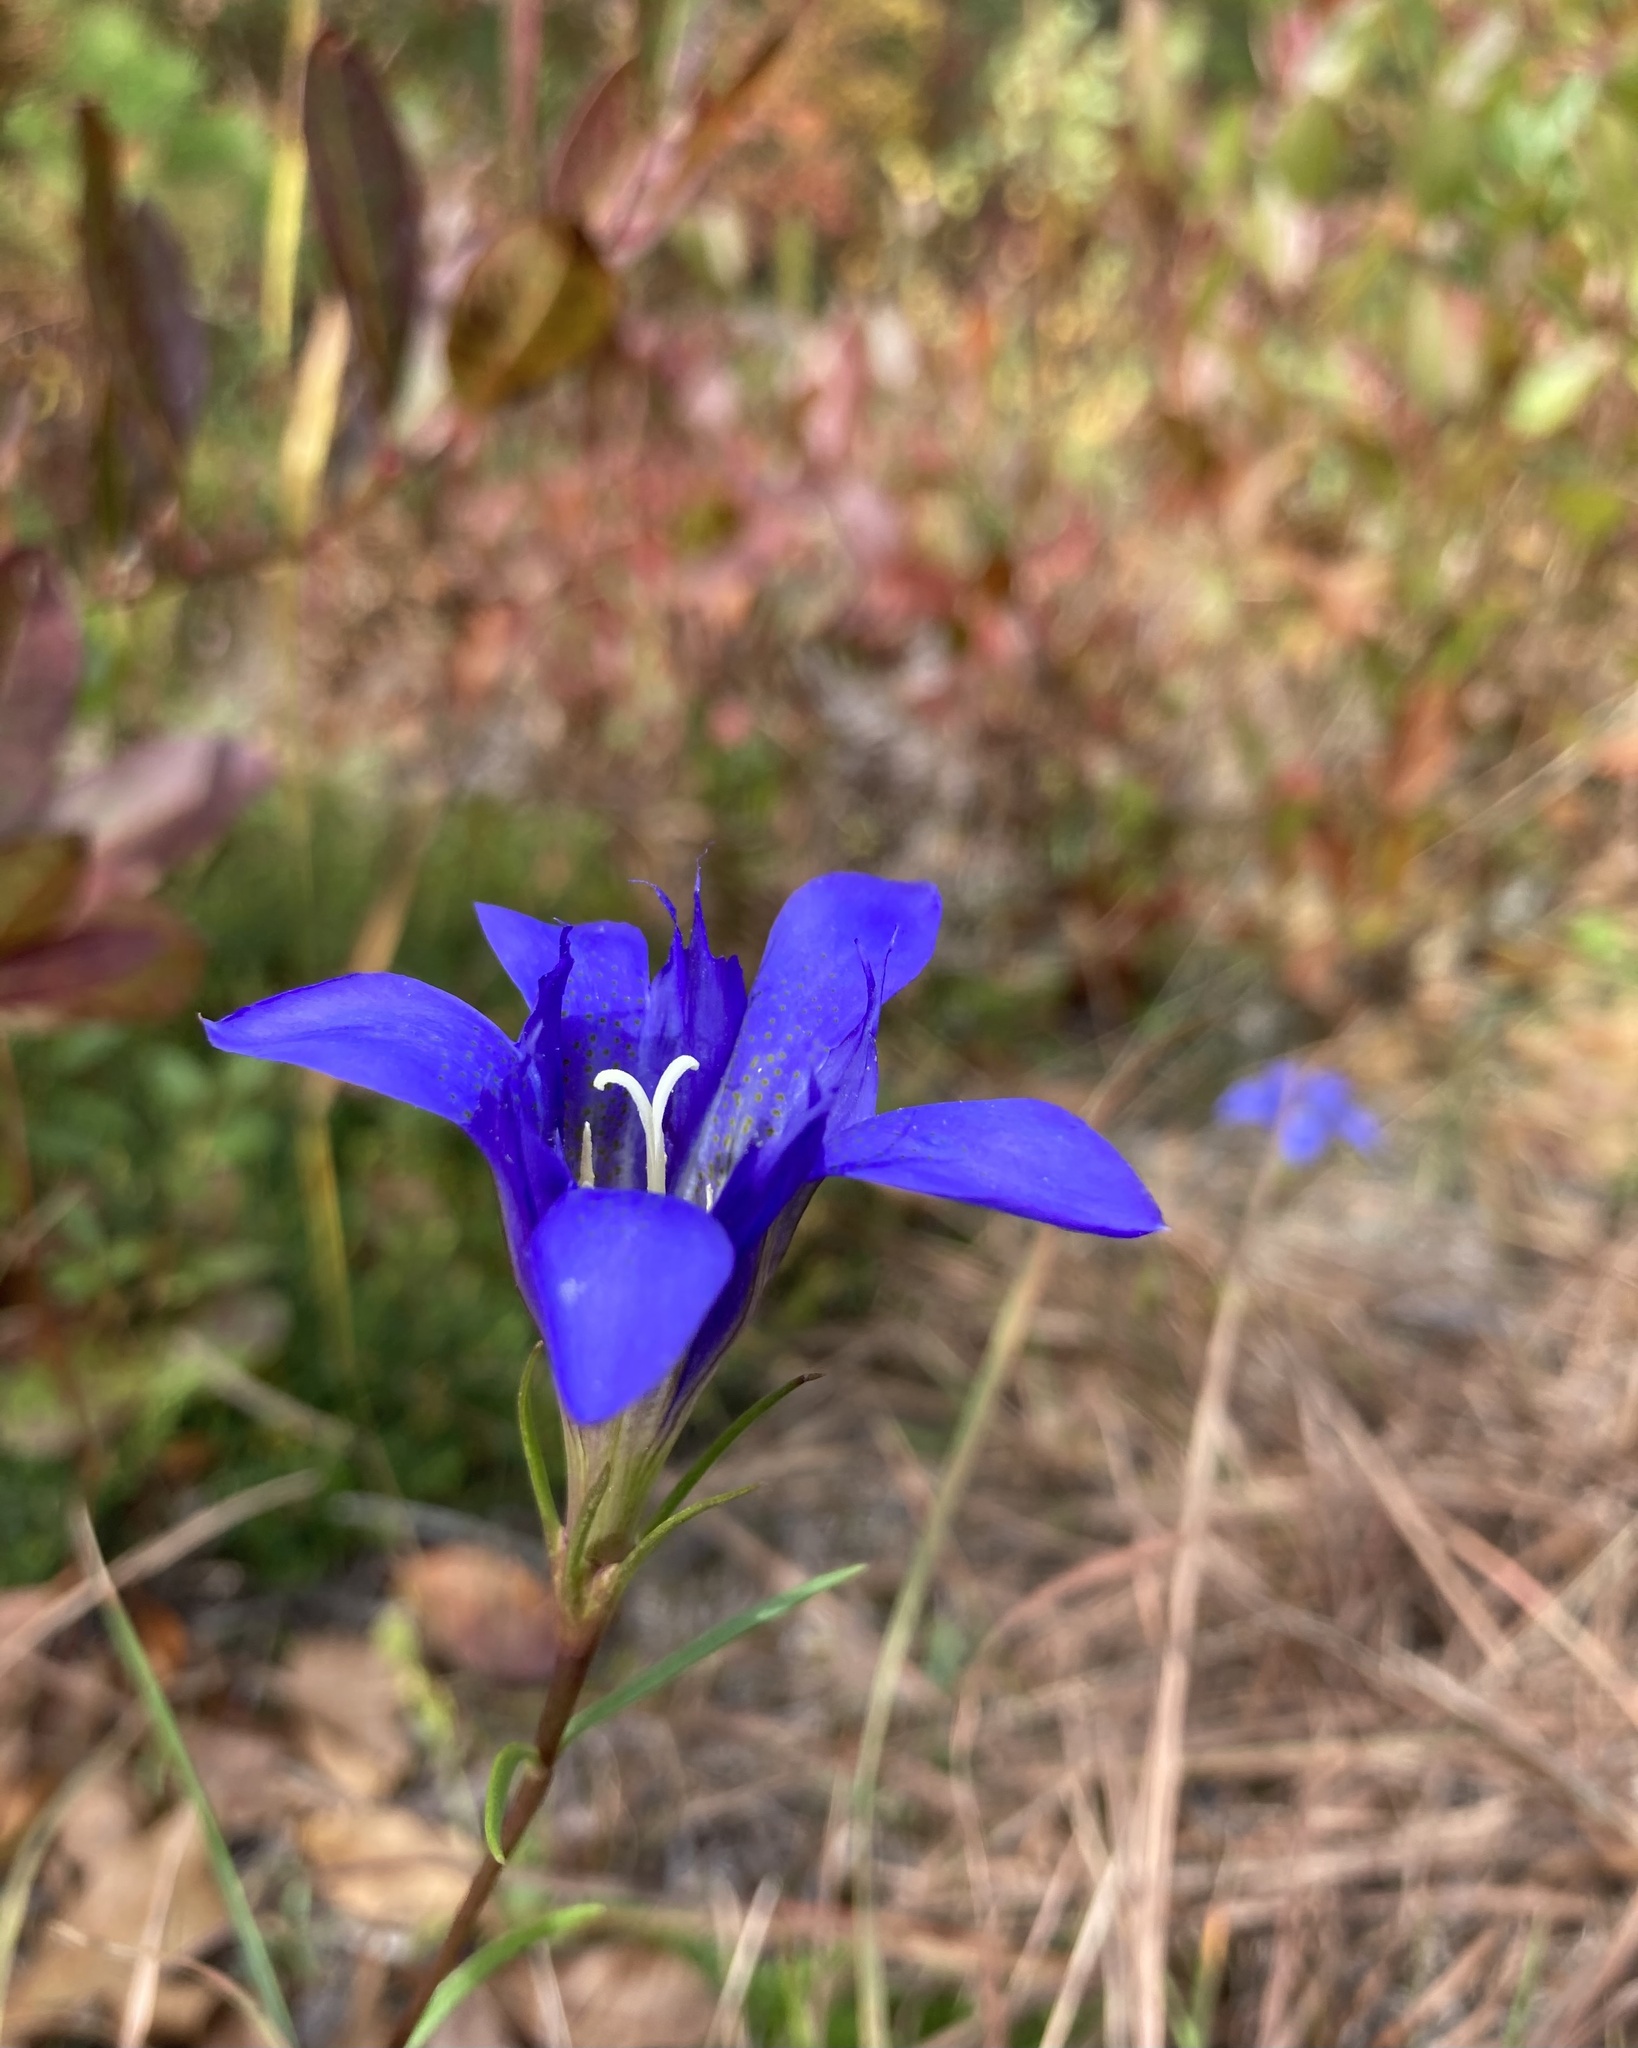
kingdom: Plantae
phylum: Tracheophyta
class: Magnoliopsida
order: Gentianales
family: Gentianaceae
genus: Gentiana
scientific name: Gentiana autumnalis
